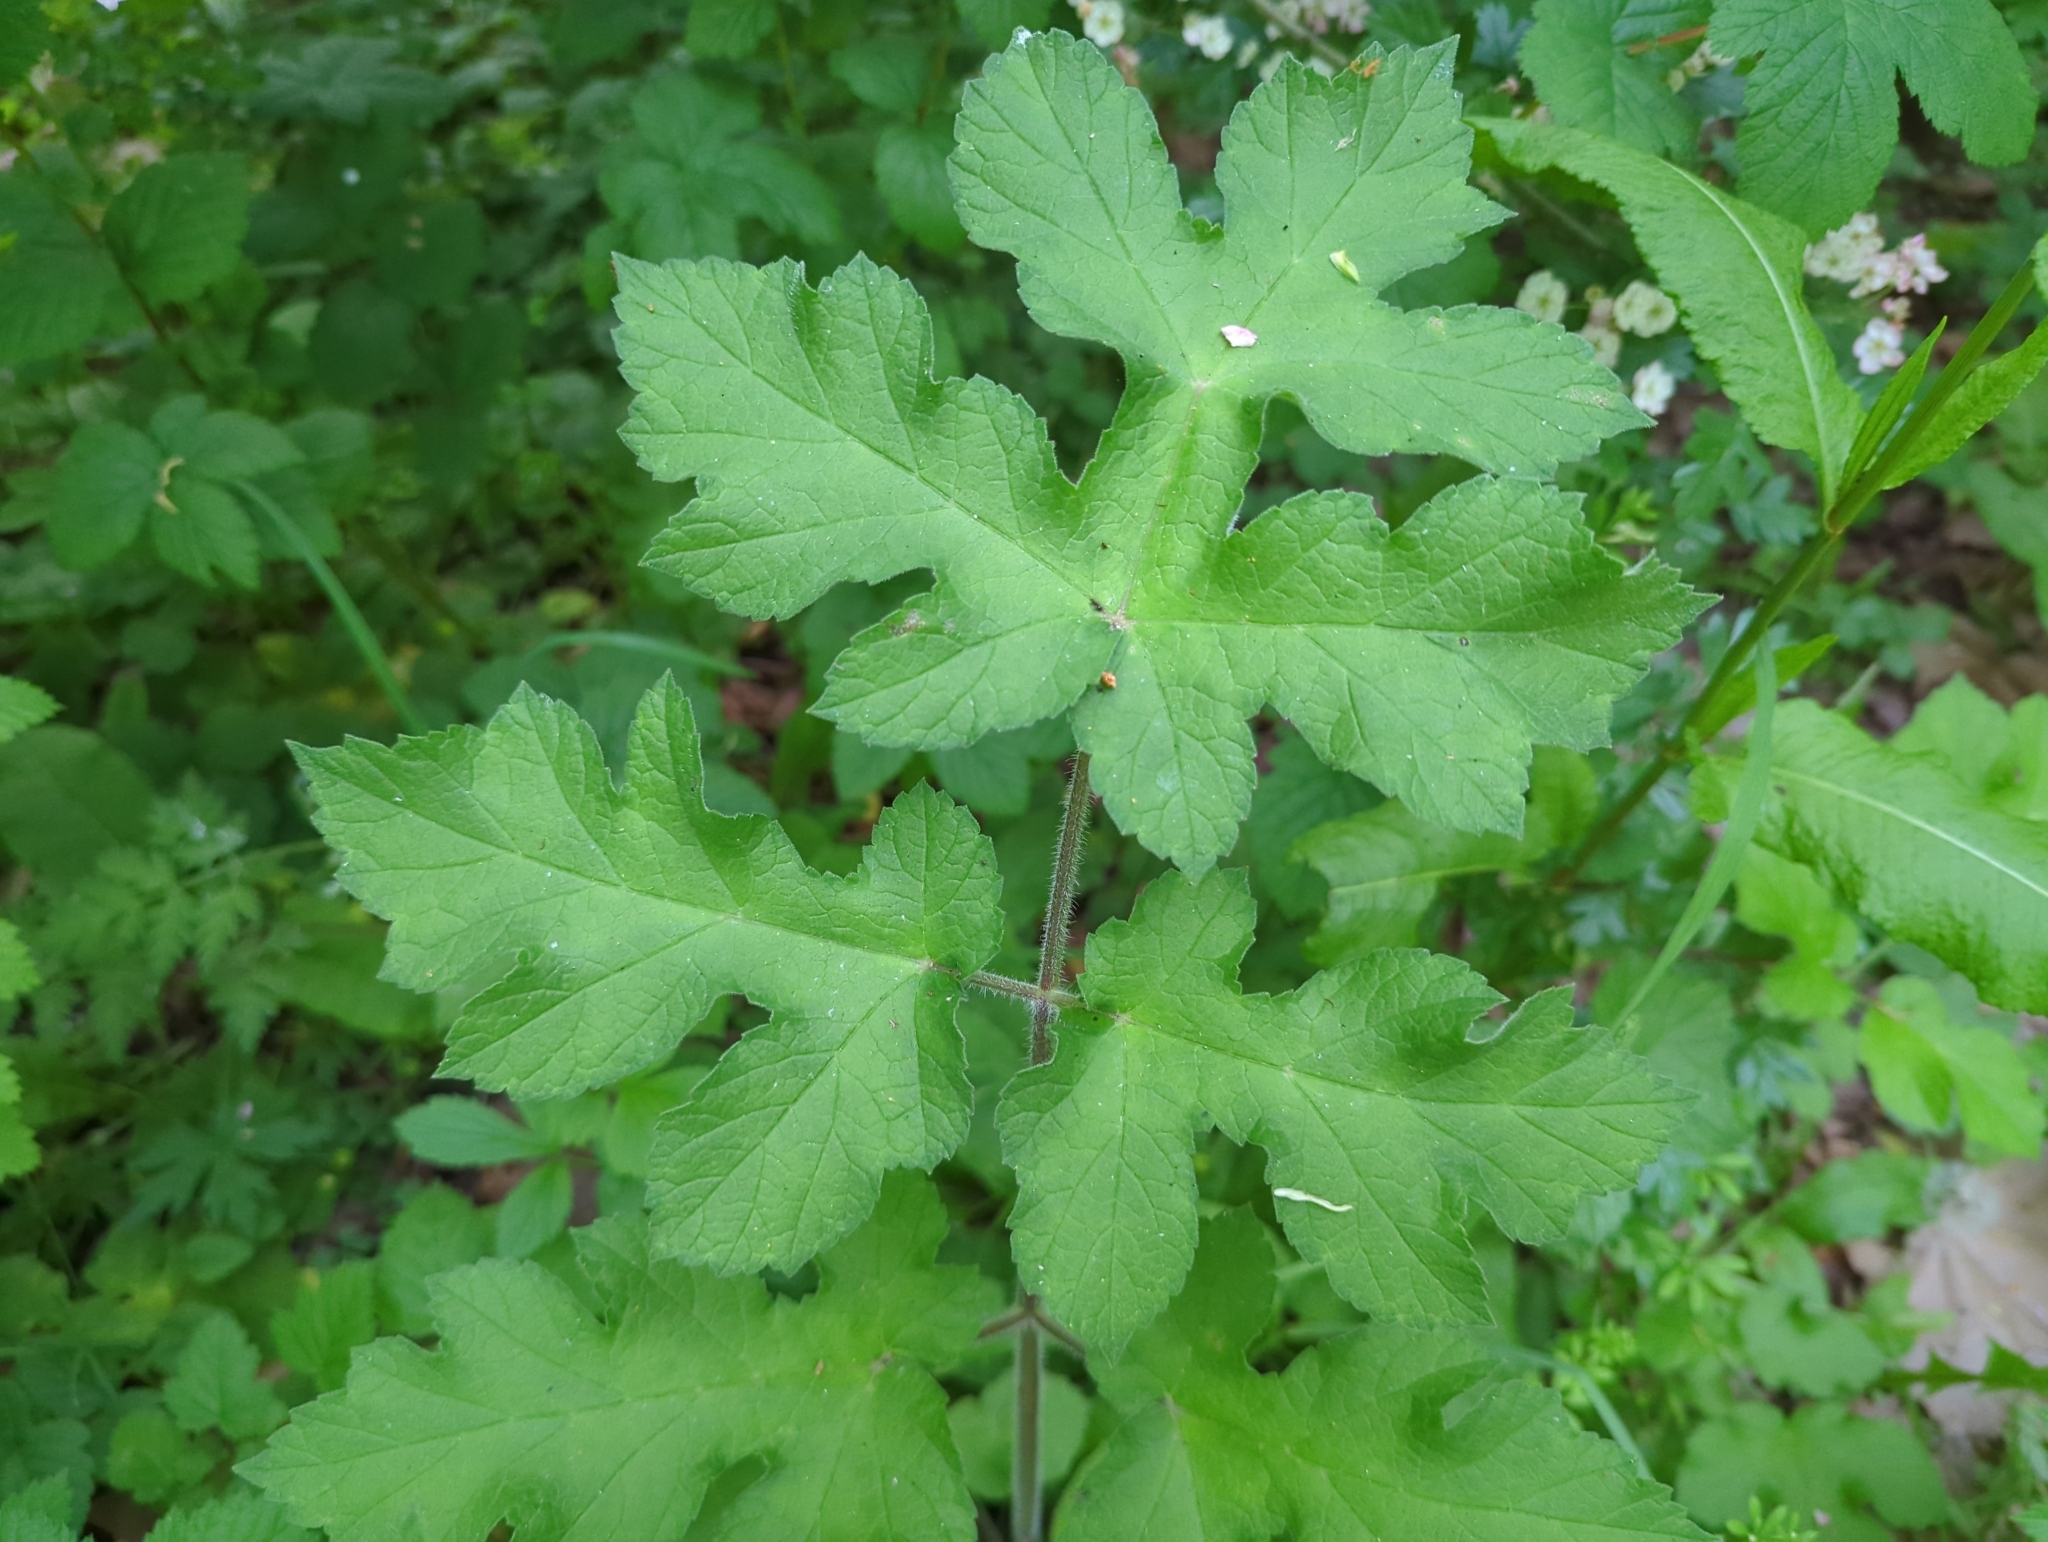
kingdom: Plantae
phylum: Tracheophyta
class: Magnoliopsida
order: Apiales
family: Apiaceae
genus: Heracleum
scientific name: Heracleum sphondylium
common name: Hogweed
